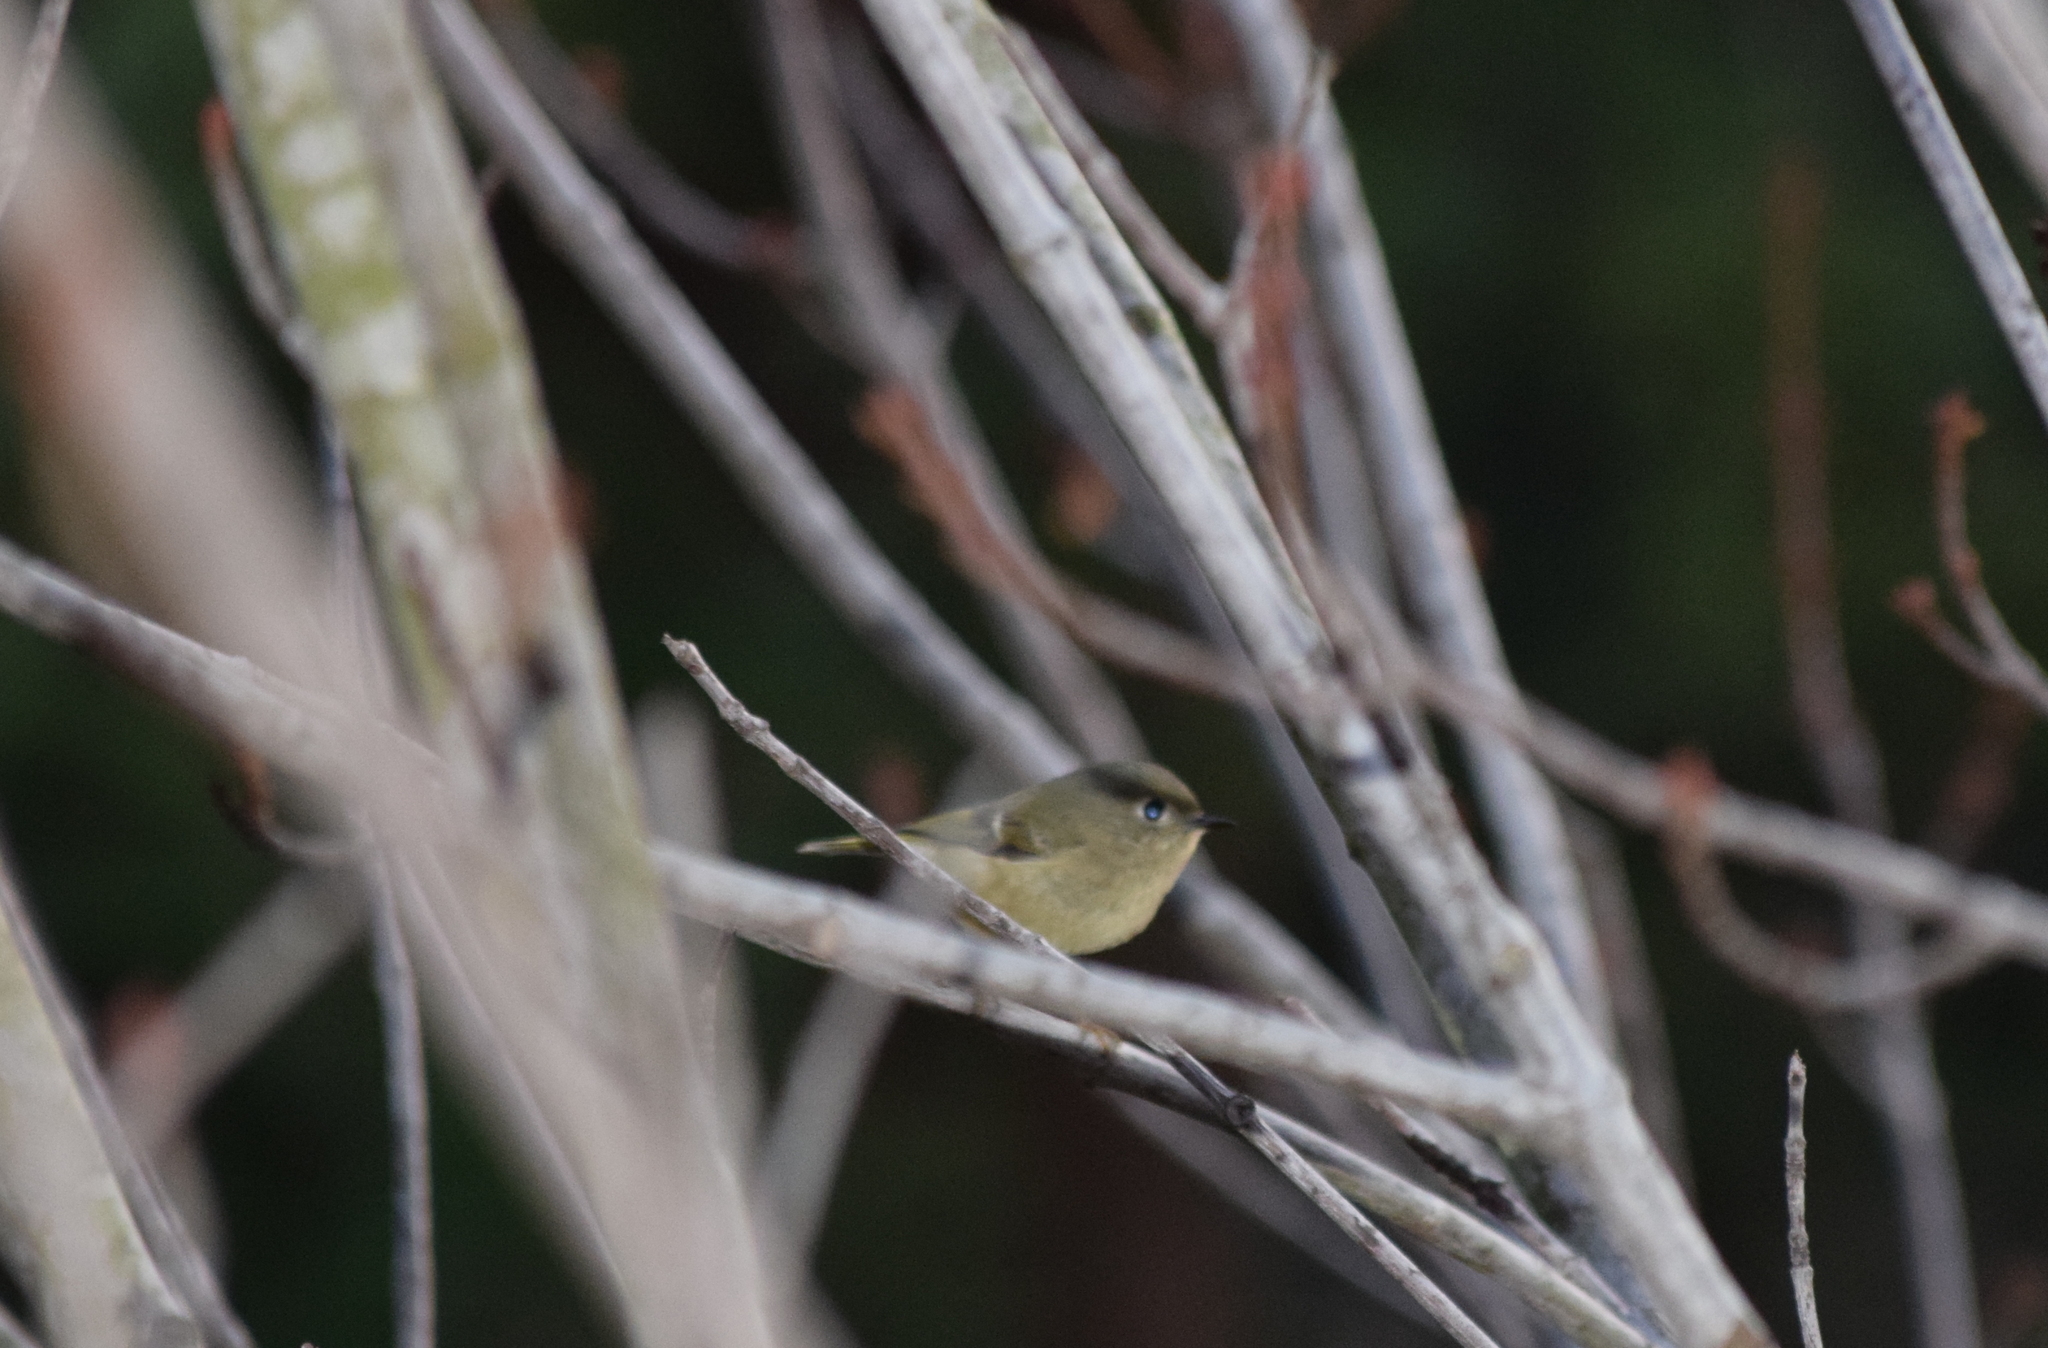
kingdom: Animalia
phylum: Chordata
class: Aves
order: Passeriformes
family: Regulidae
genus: Regulus
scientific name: Regulus calendula
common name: Ruby-crowned kinglet
